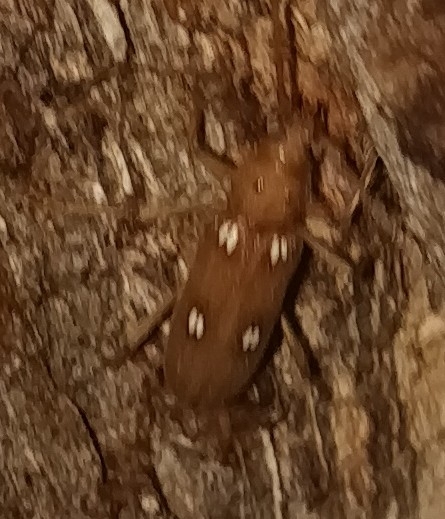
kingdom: Animalia
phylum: Arthropoda
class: Insecta
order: Coleoptera
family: Cerambycidae
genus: Eburia
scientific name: Eburia quadrigeminata
